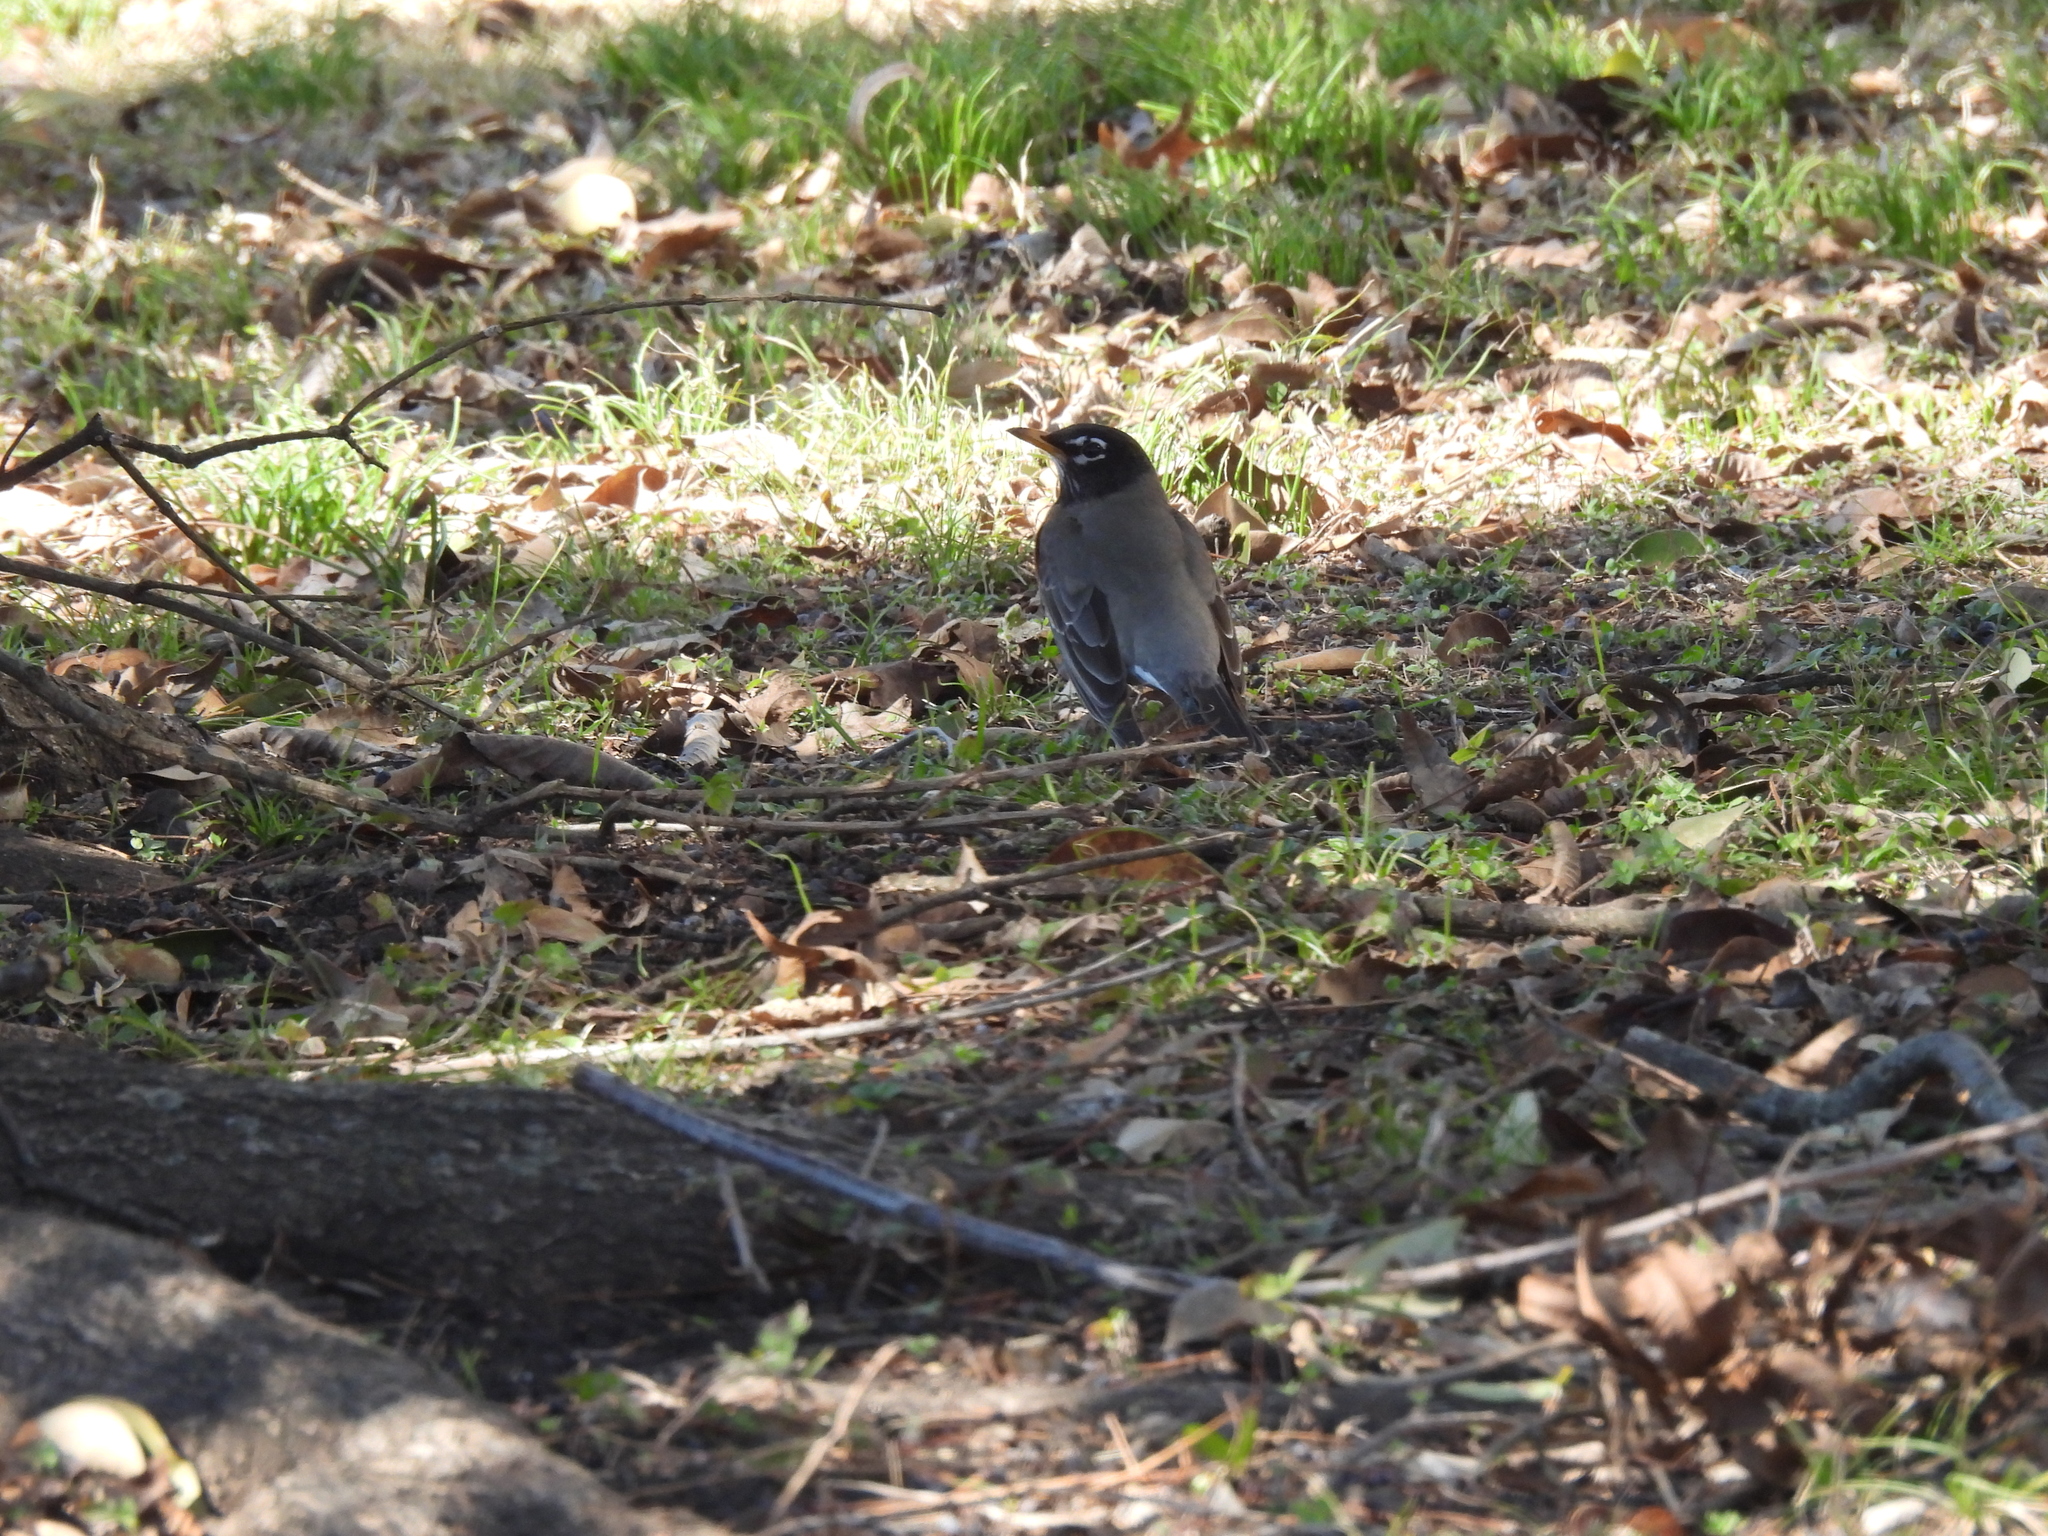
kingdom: Animalia
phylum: Chordata
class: Aves
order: Passeriformes
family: Turdidae
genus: Turdus
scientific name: Turdus migratorius
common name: American robin
